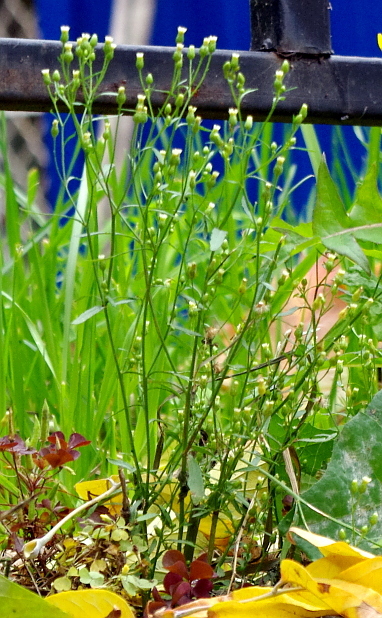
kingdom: Plantae
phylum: Tracheophyta
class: Magnoliopsida
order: Asterales
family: Asteraceae
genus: Erigeron
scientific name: Erigeron canadensis
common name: Canadian fleabane
